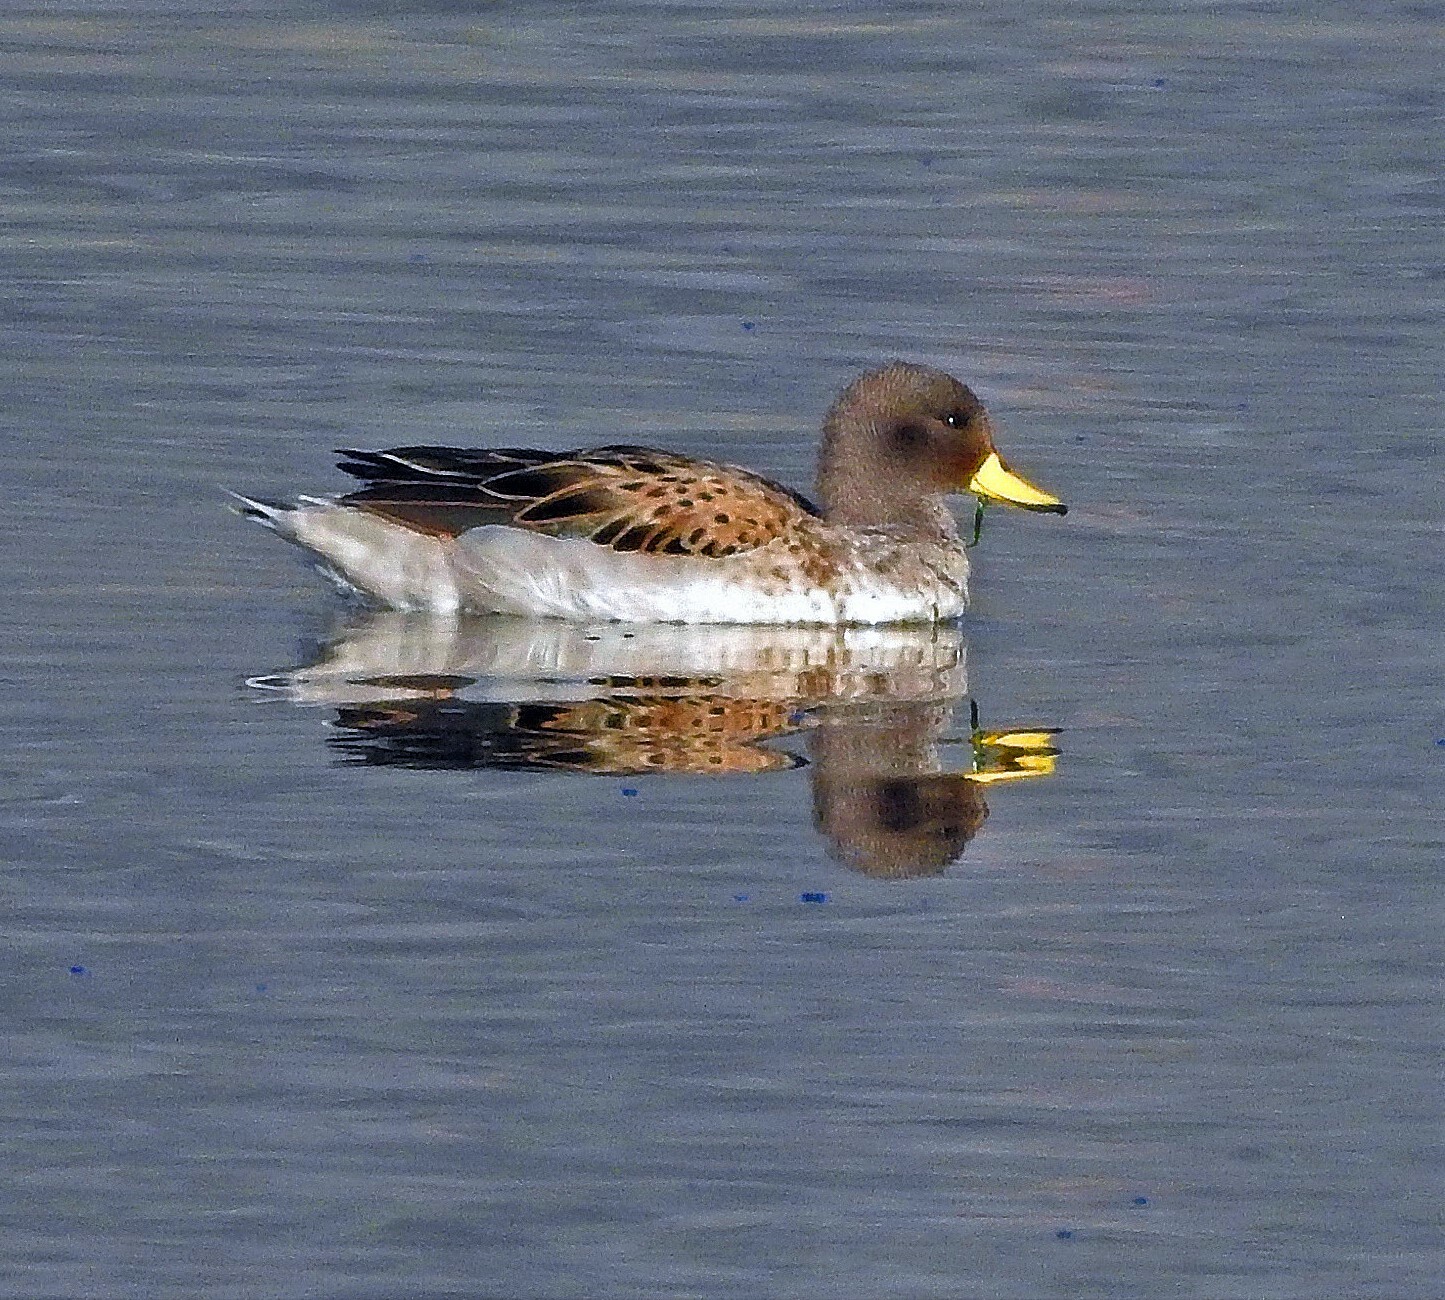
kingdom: Animalia
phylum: Chordata
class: Aves
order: Anseriformes
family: Anatidae
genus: Anas
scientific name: Anas flavirostris
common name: Yellow-billed teal
